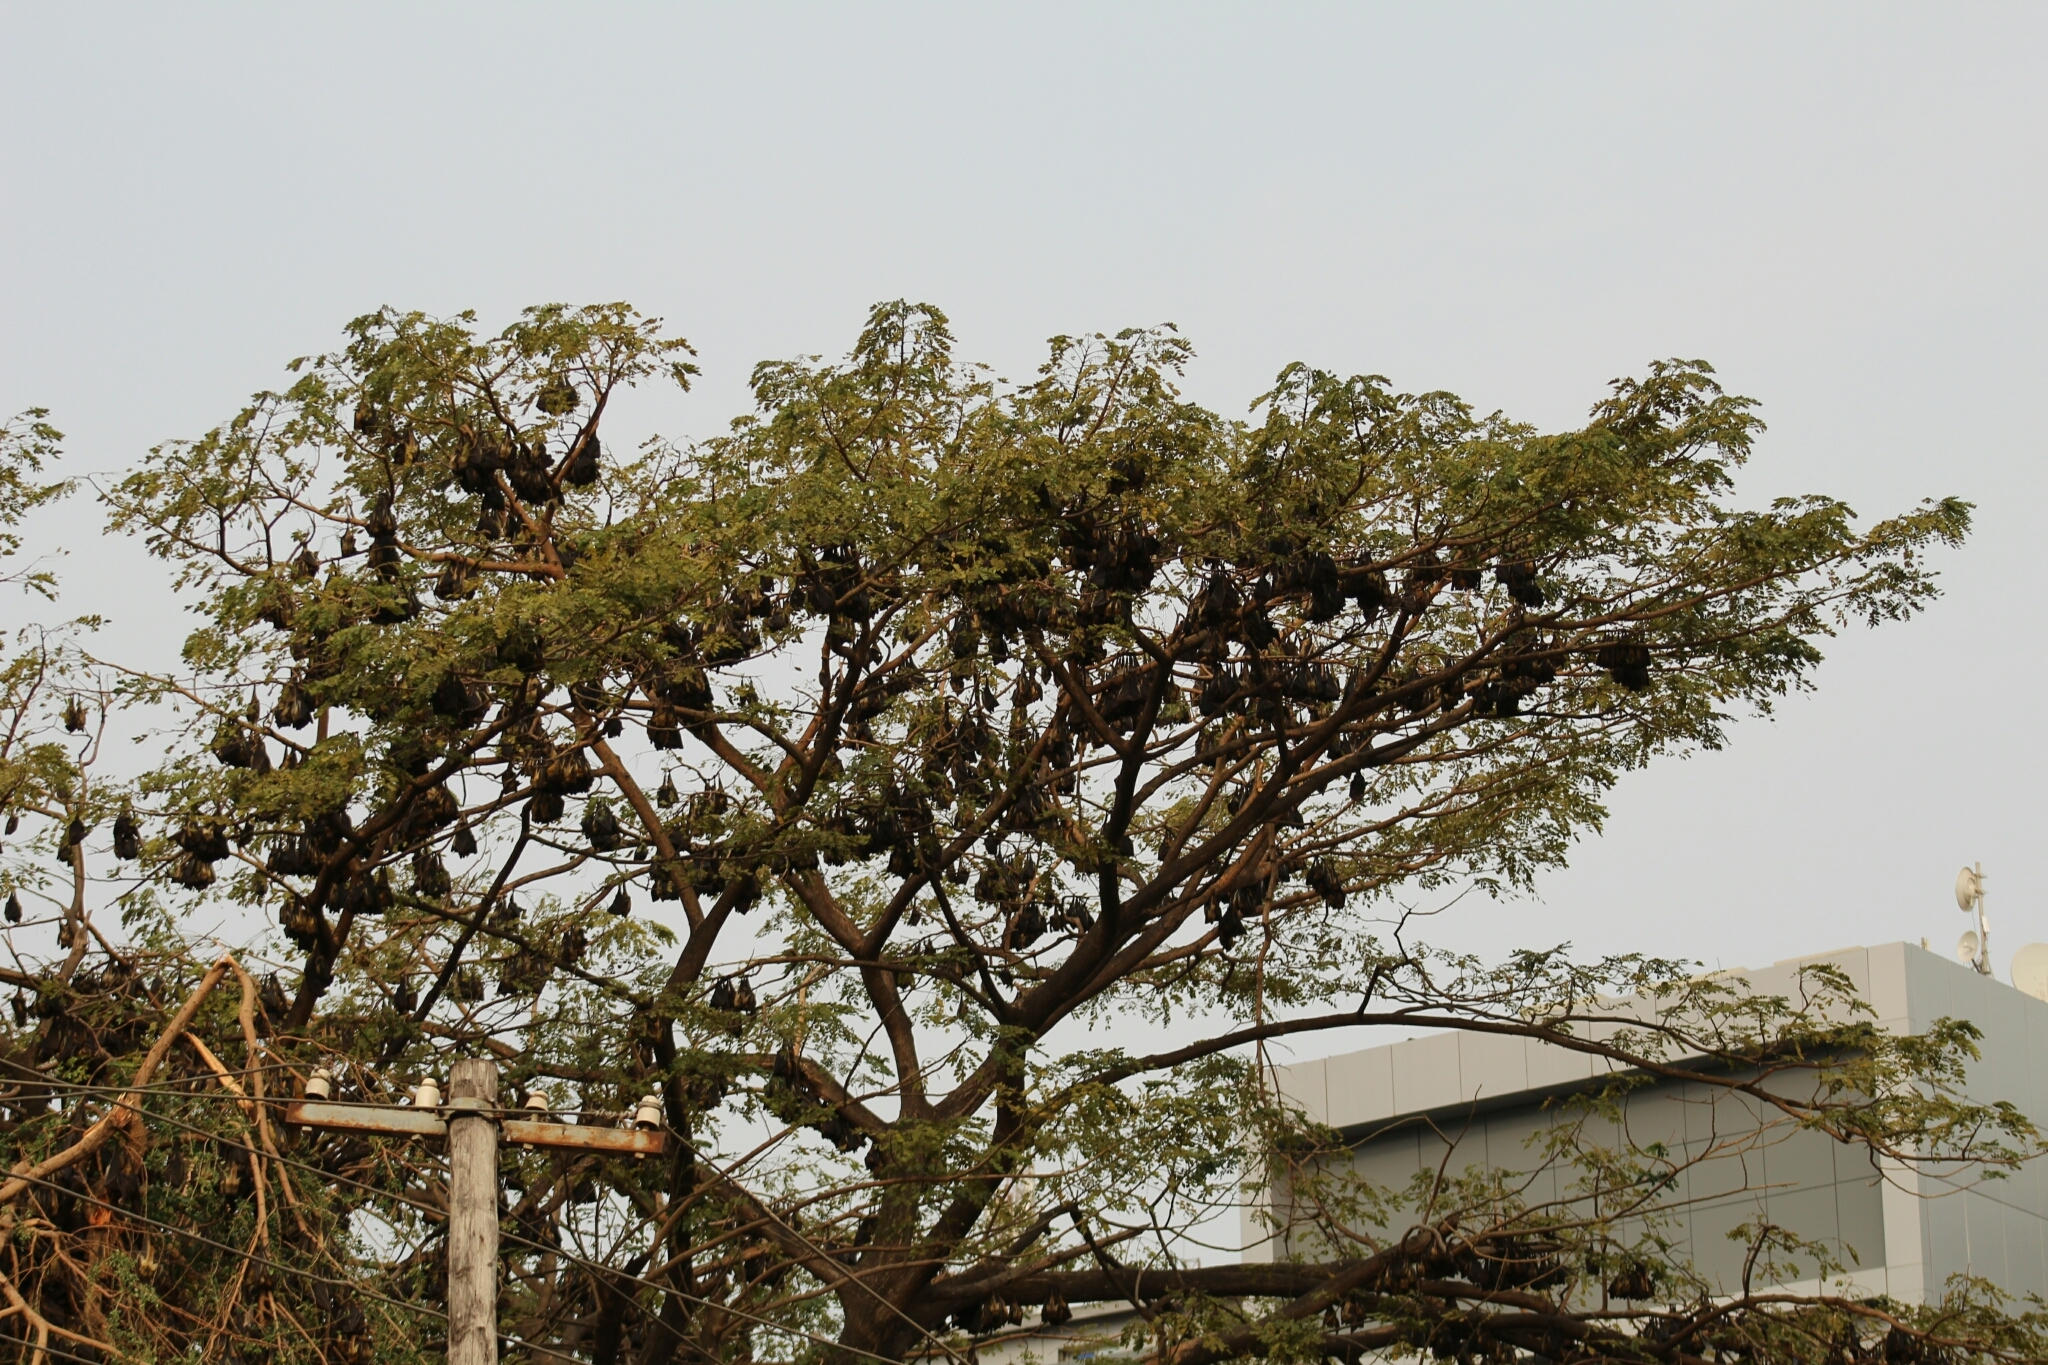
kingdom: Animalia
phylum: Chordata
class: Mammalia
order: Chiroptera
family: Pteropodidae
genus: Eidolon
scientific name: Eidolon helvum
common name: Straw-colored fruit bat
